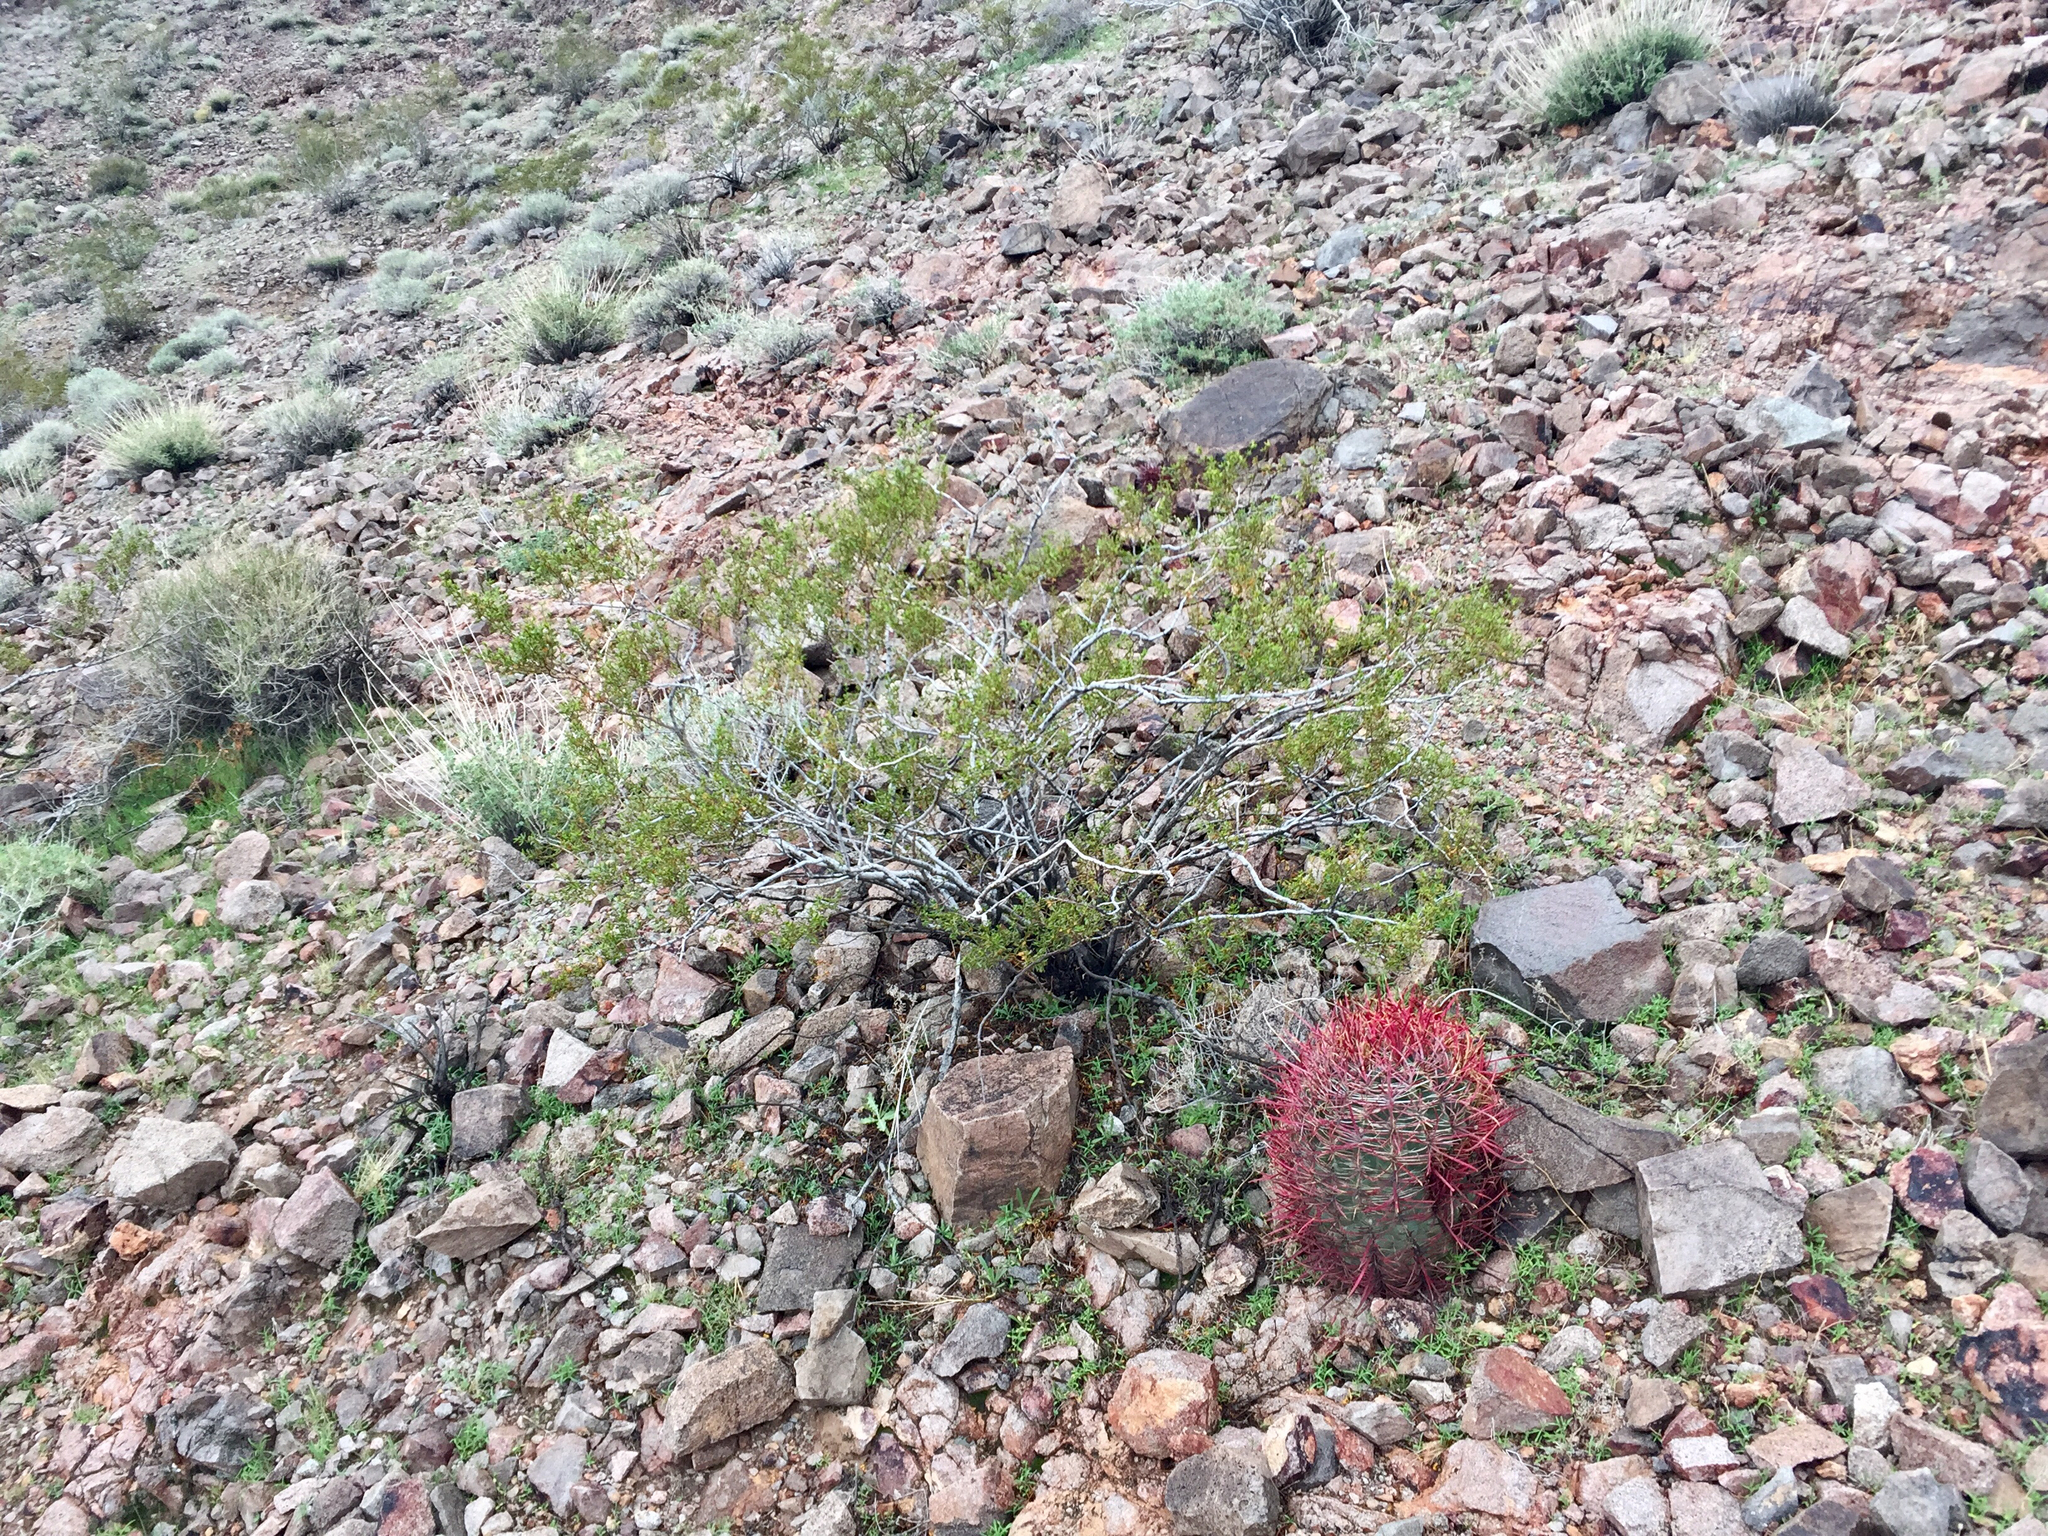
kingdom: Plantae
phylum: Tracheophyta
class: Magnoliopsida
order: Zygophyllales
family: Zygophyllaceae
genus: Larrea
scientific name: Larrea tridentata
